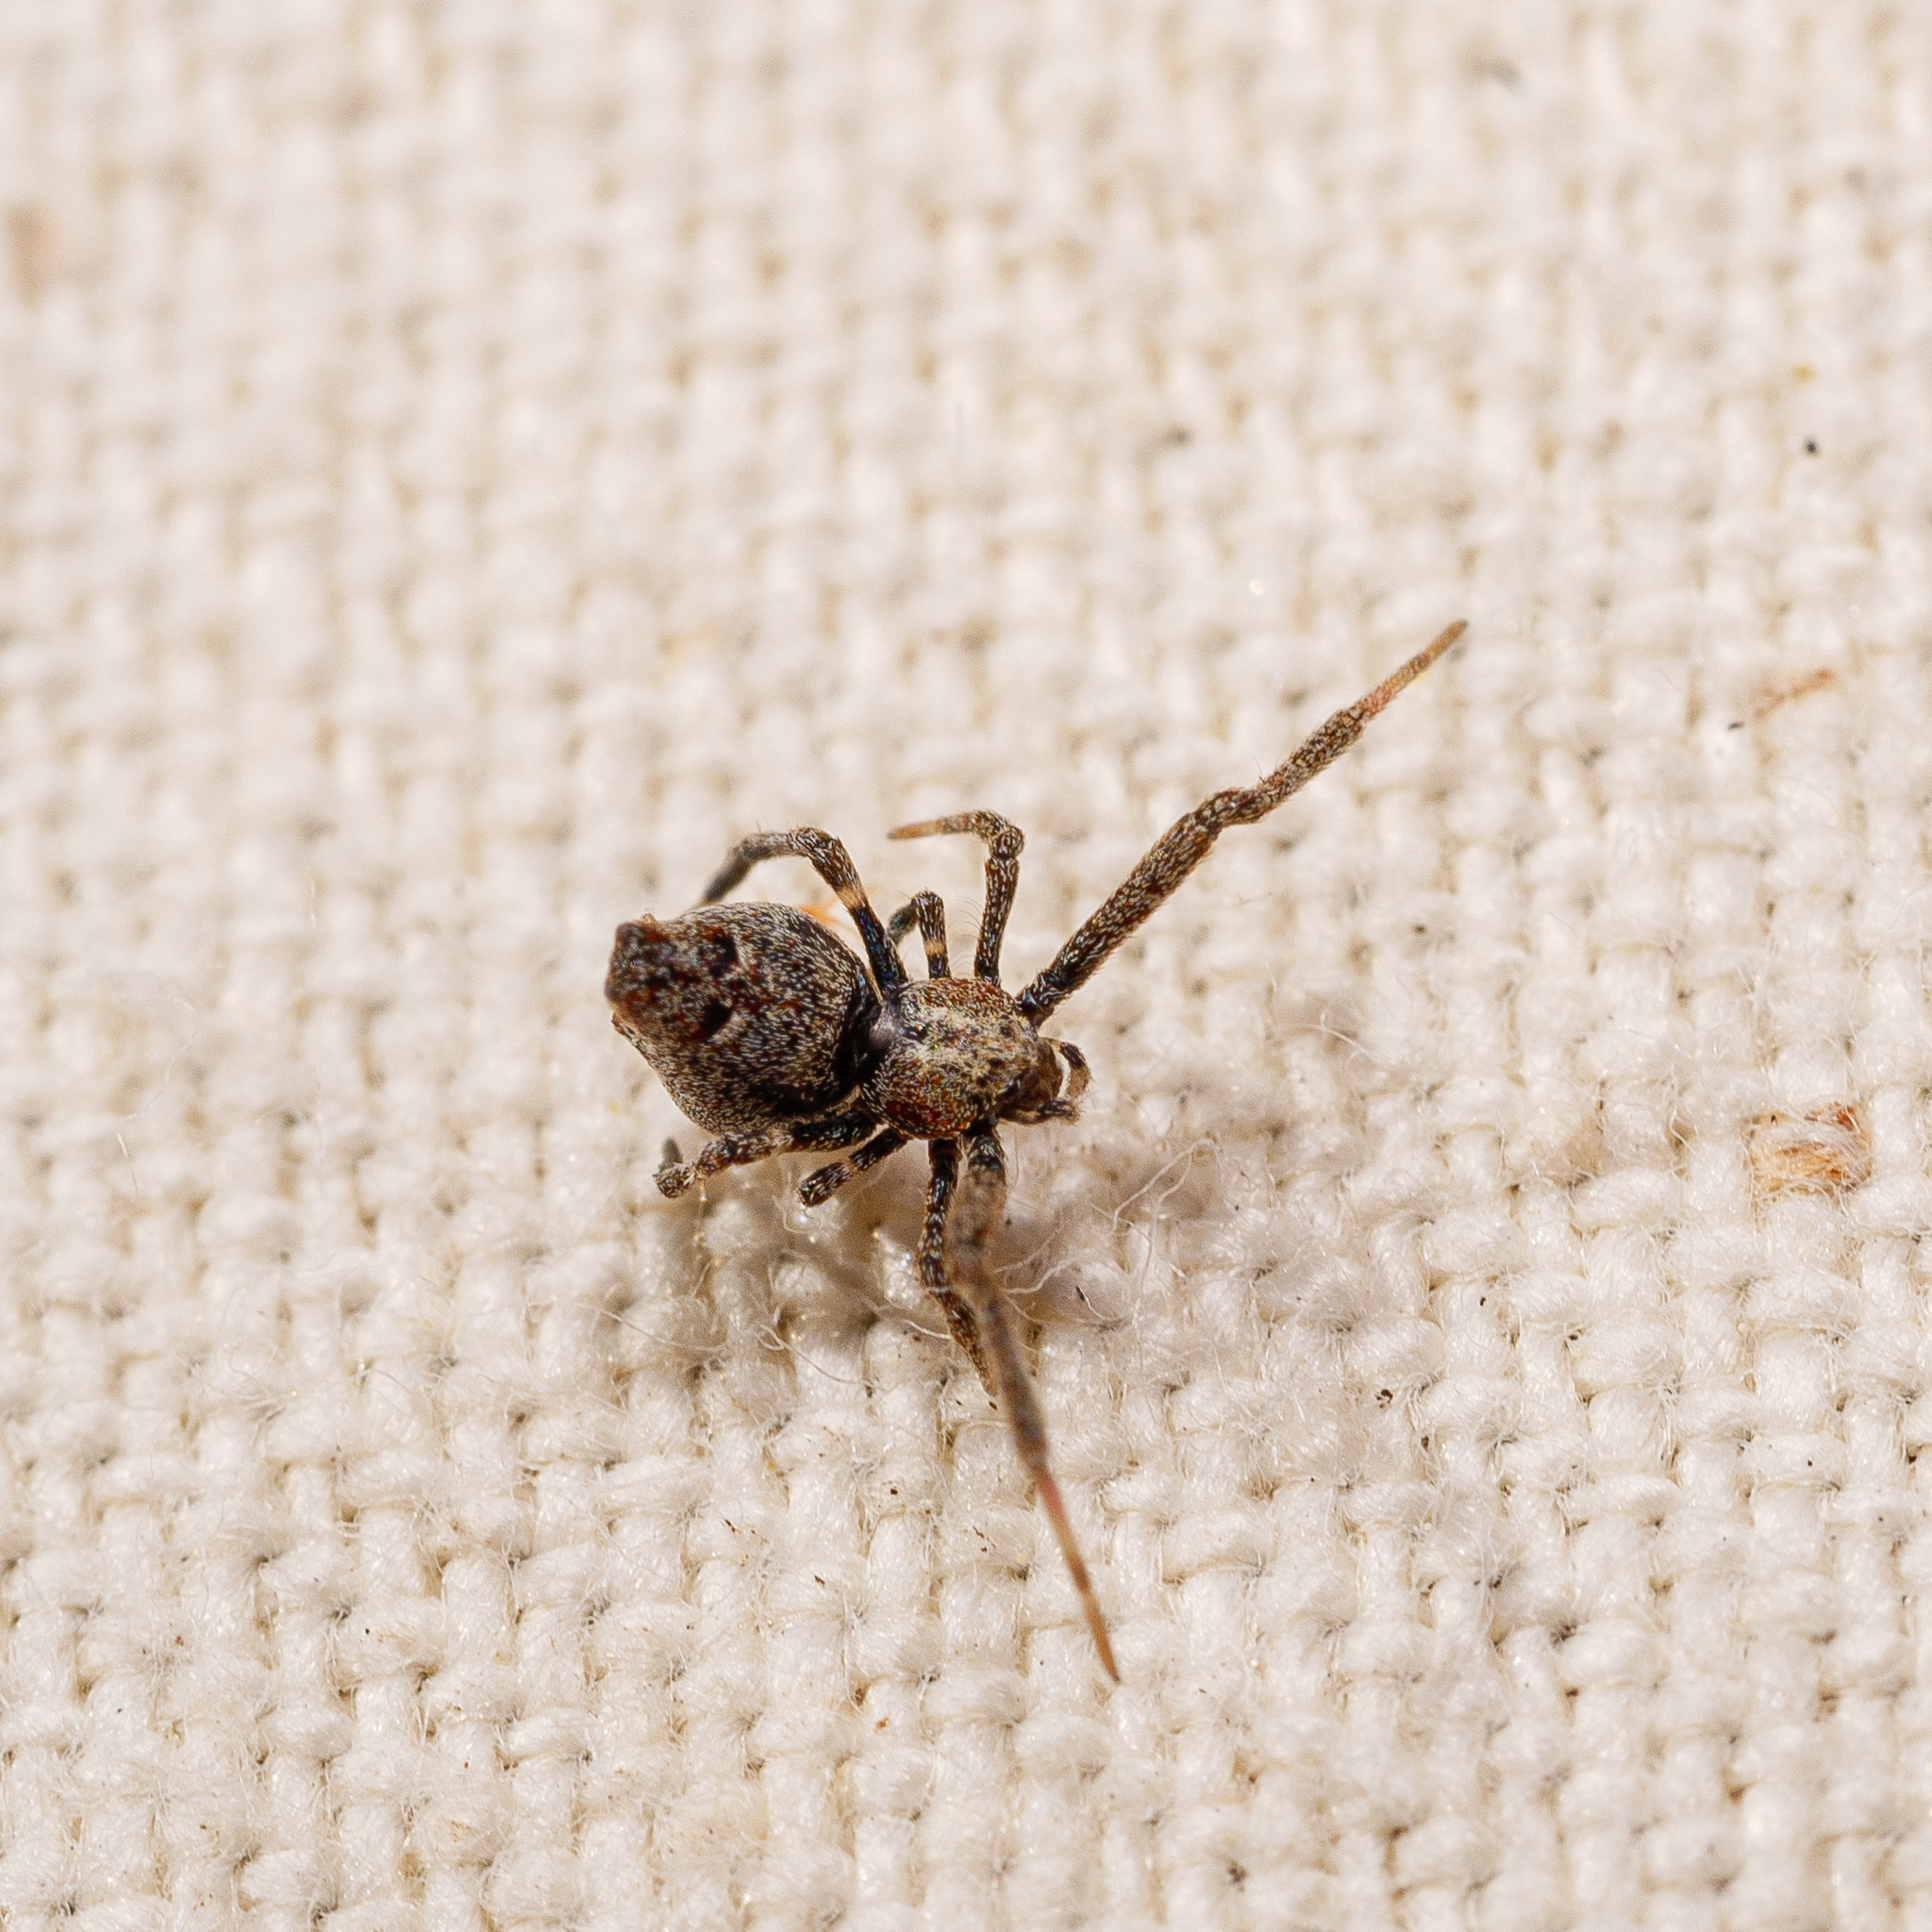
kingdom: Animalia
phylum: Arthropoda
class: Arachnida
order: Araneae
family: Uloboridae
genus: Philoponella
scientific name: Philoponella congregabilis
